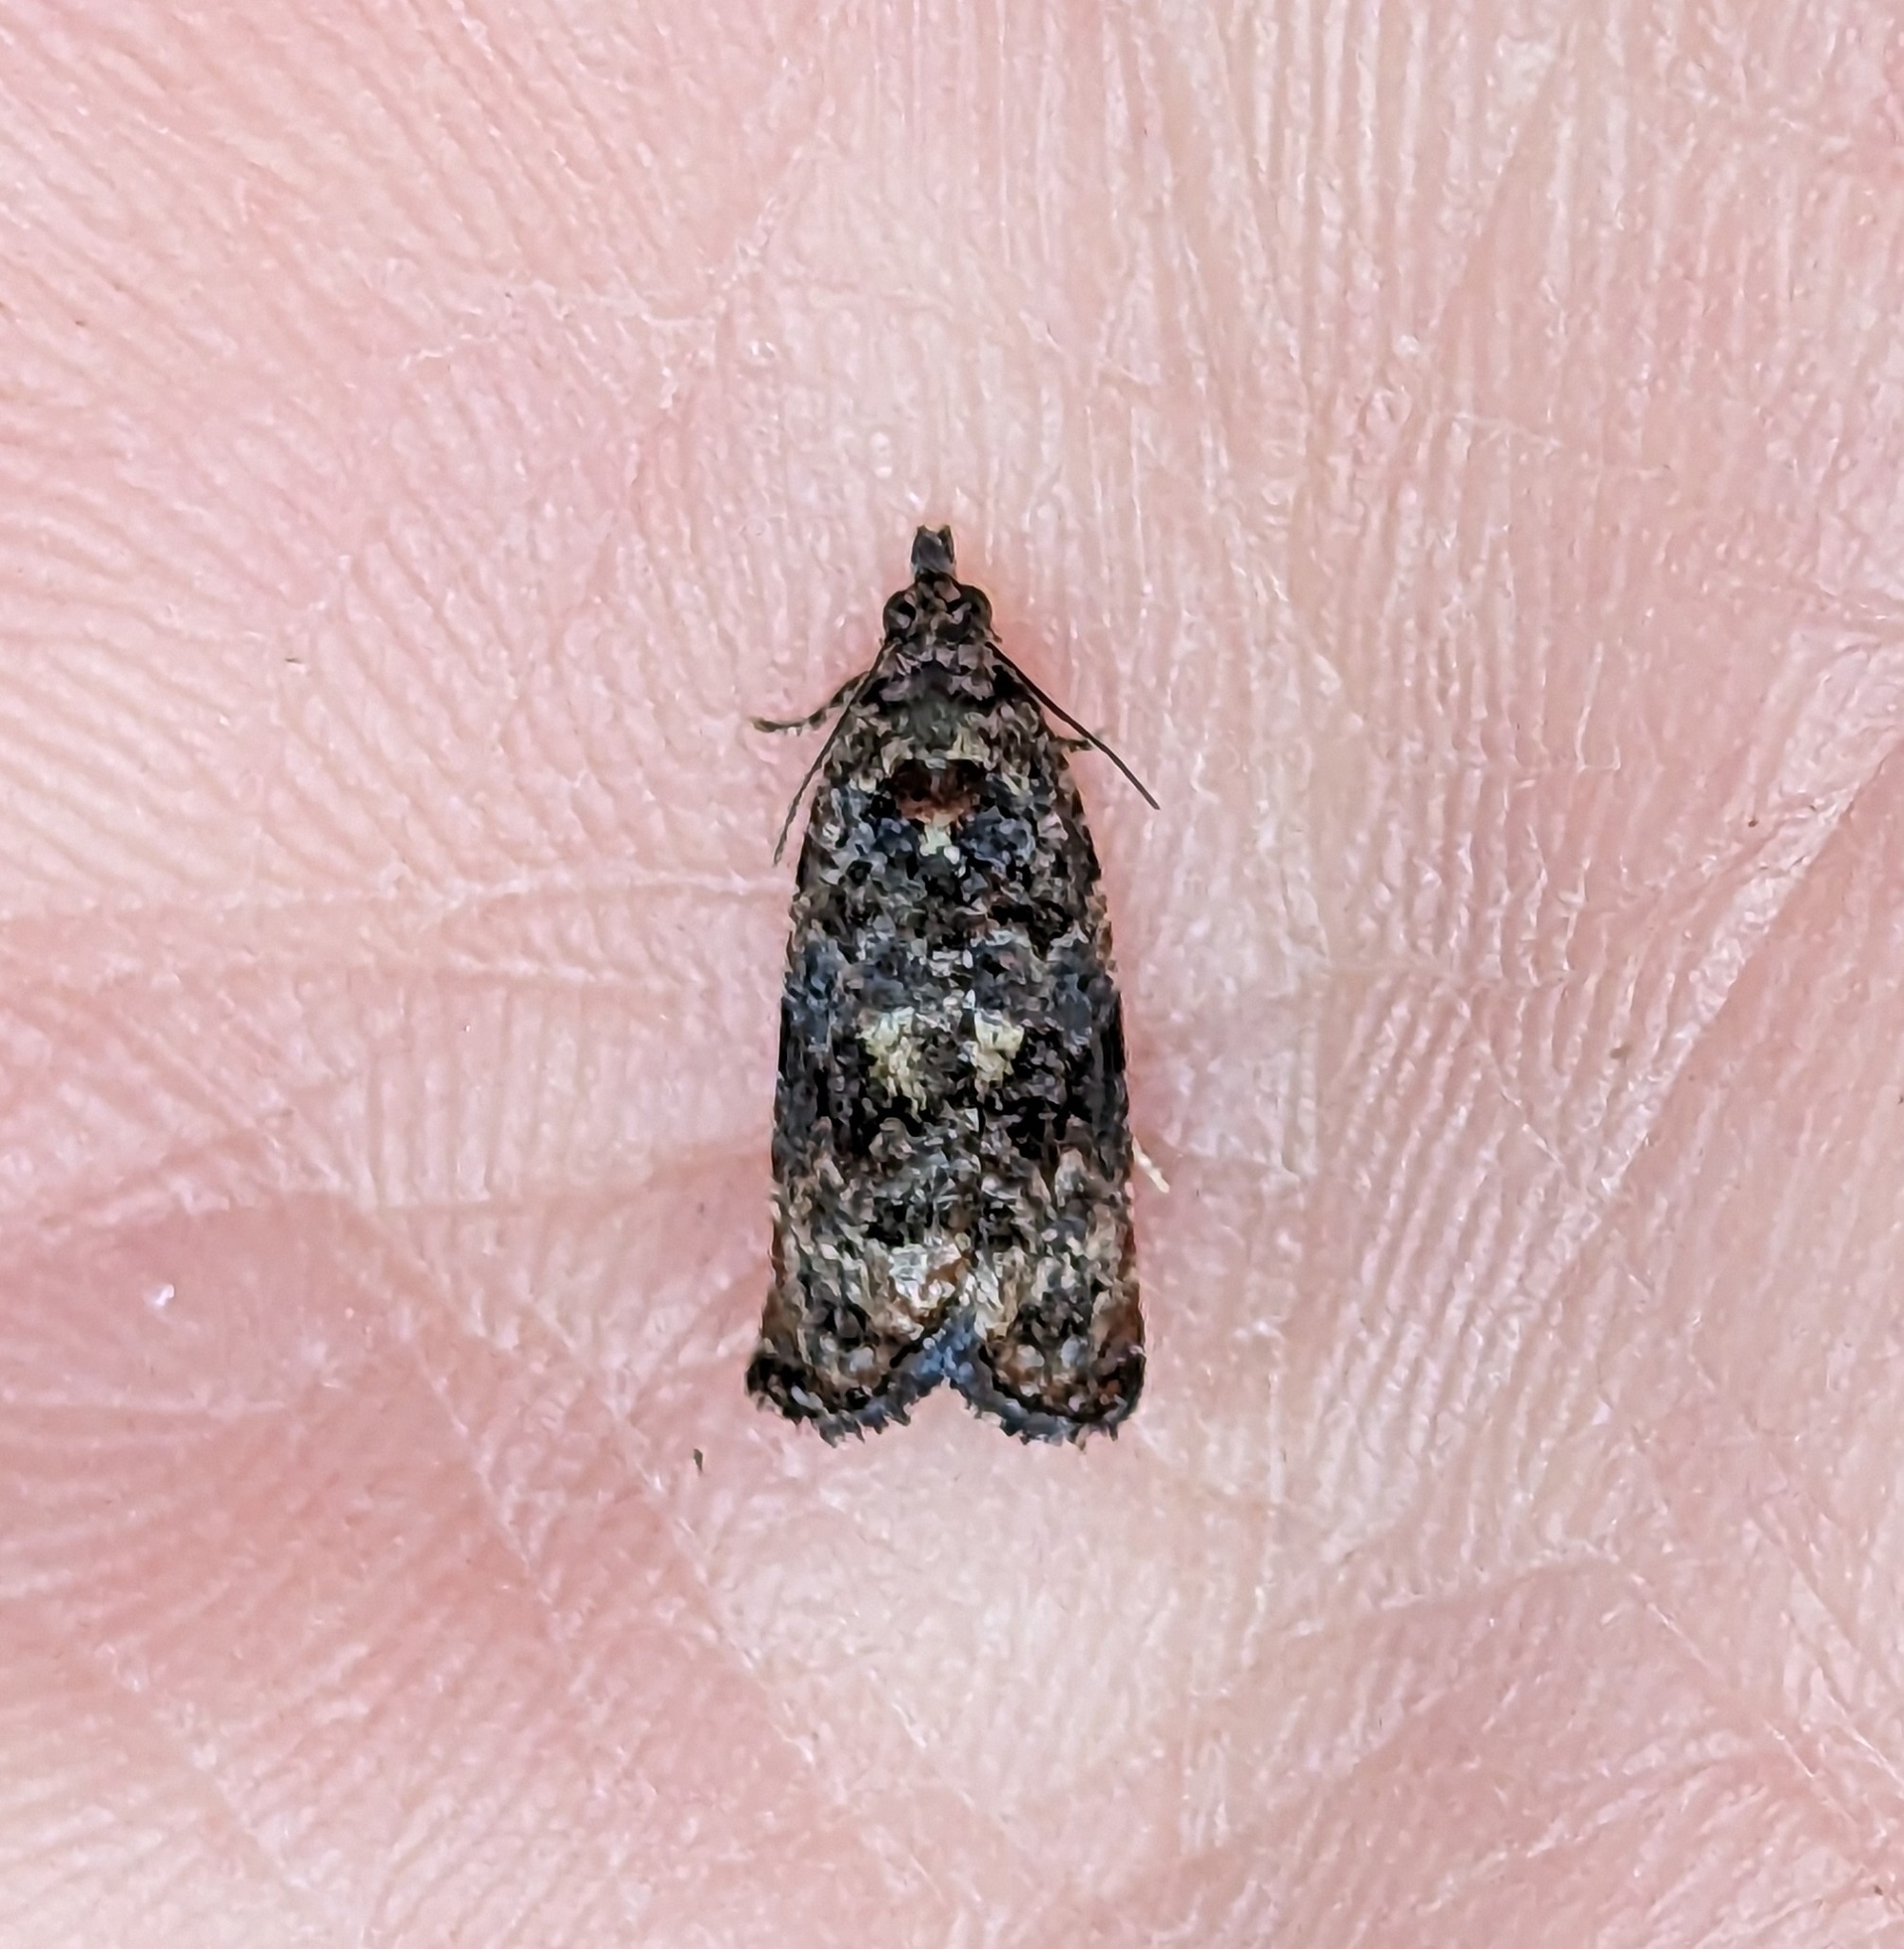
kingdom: Animalia
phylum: Arthropoda
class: Insecta
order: Lepidoptera
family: Tortricidae
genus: Endothenia
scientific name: Endothenia hebesana
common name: Verbena bud moth
